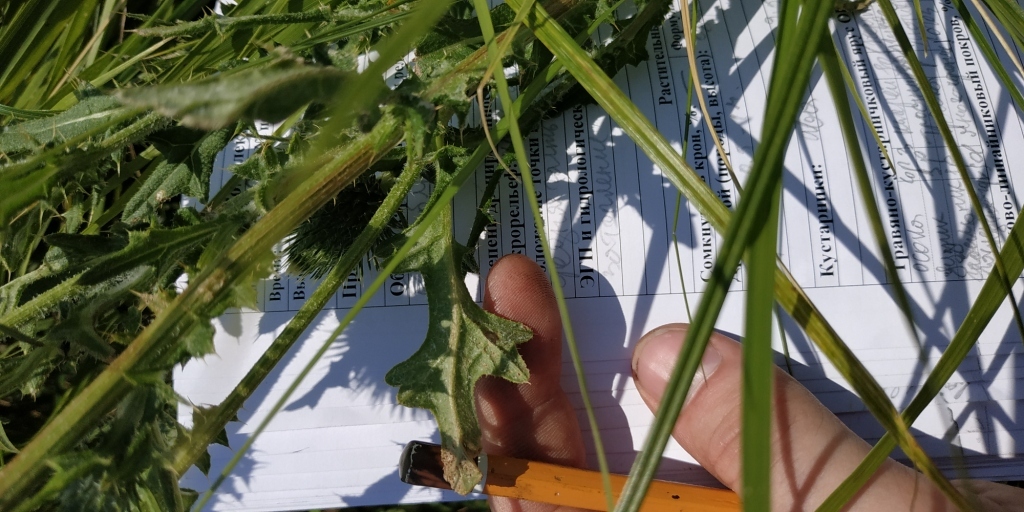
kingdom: Plantae
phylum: Tracheophyta
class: Magnoliopsida
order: Asterales
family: Asteraceae
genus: Cirsium
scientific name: Cirsium vulgare
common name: Bull thistle
